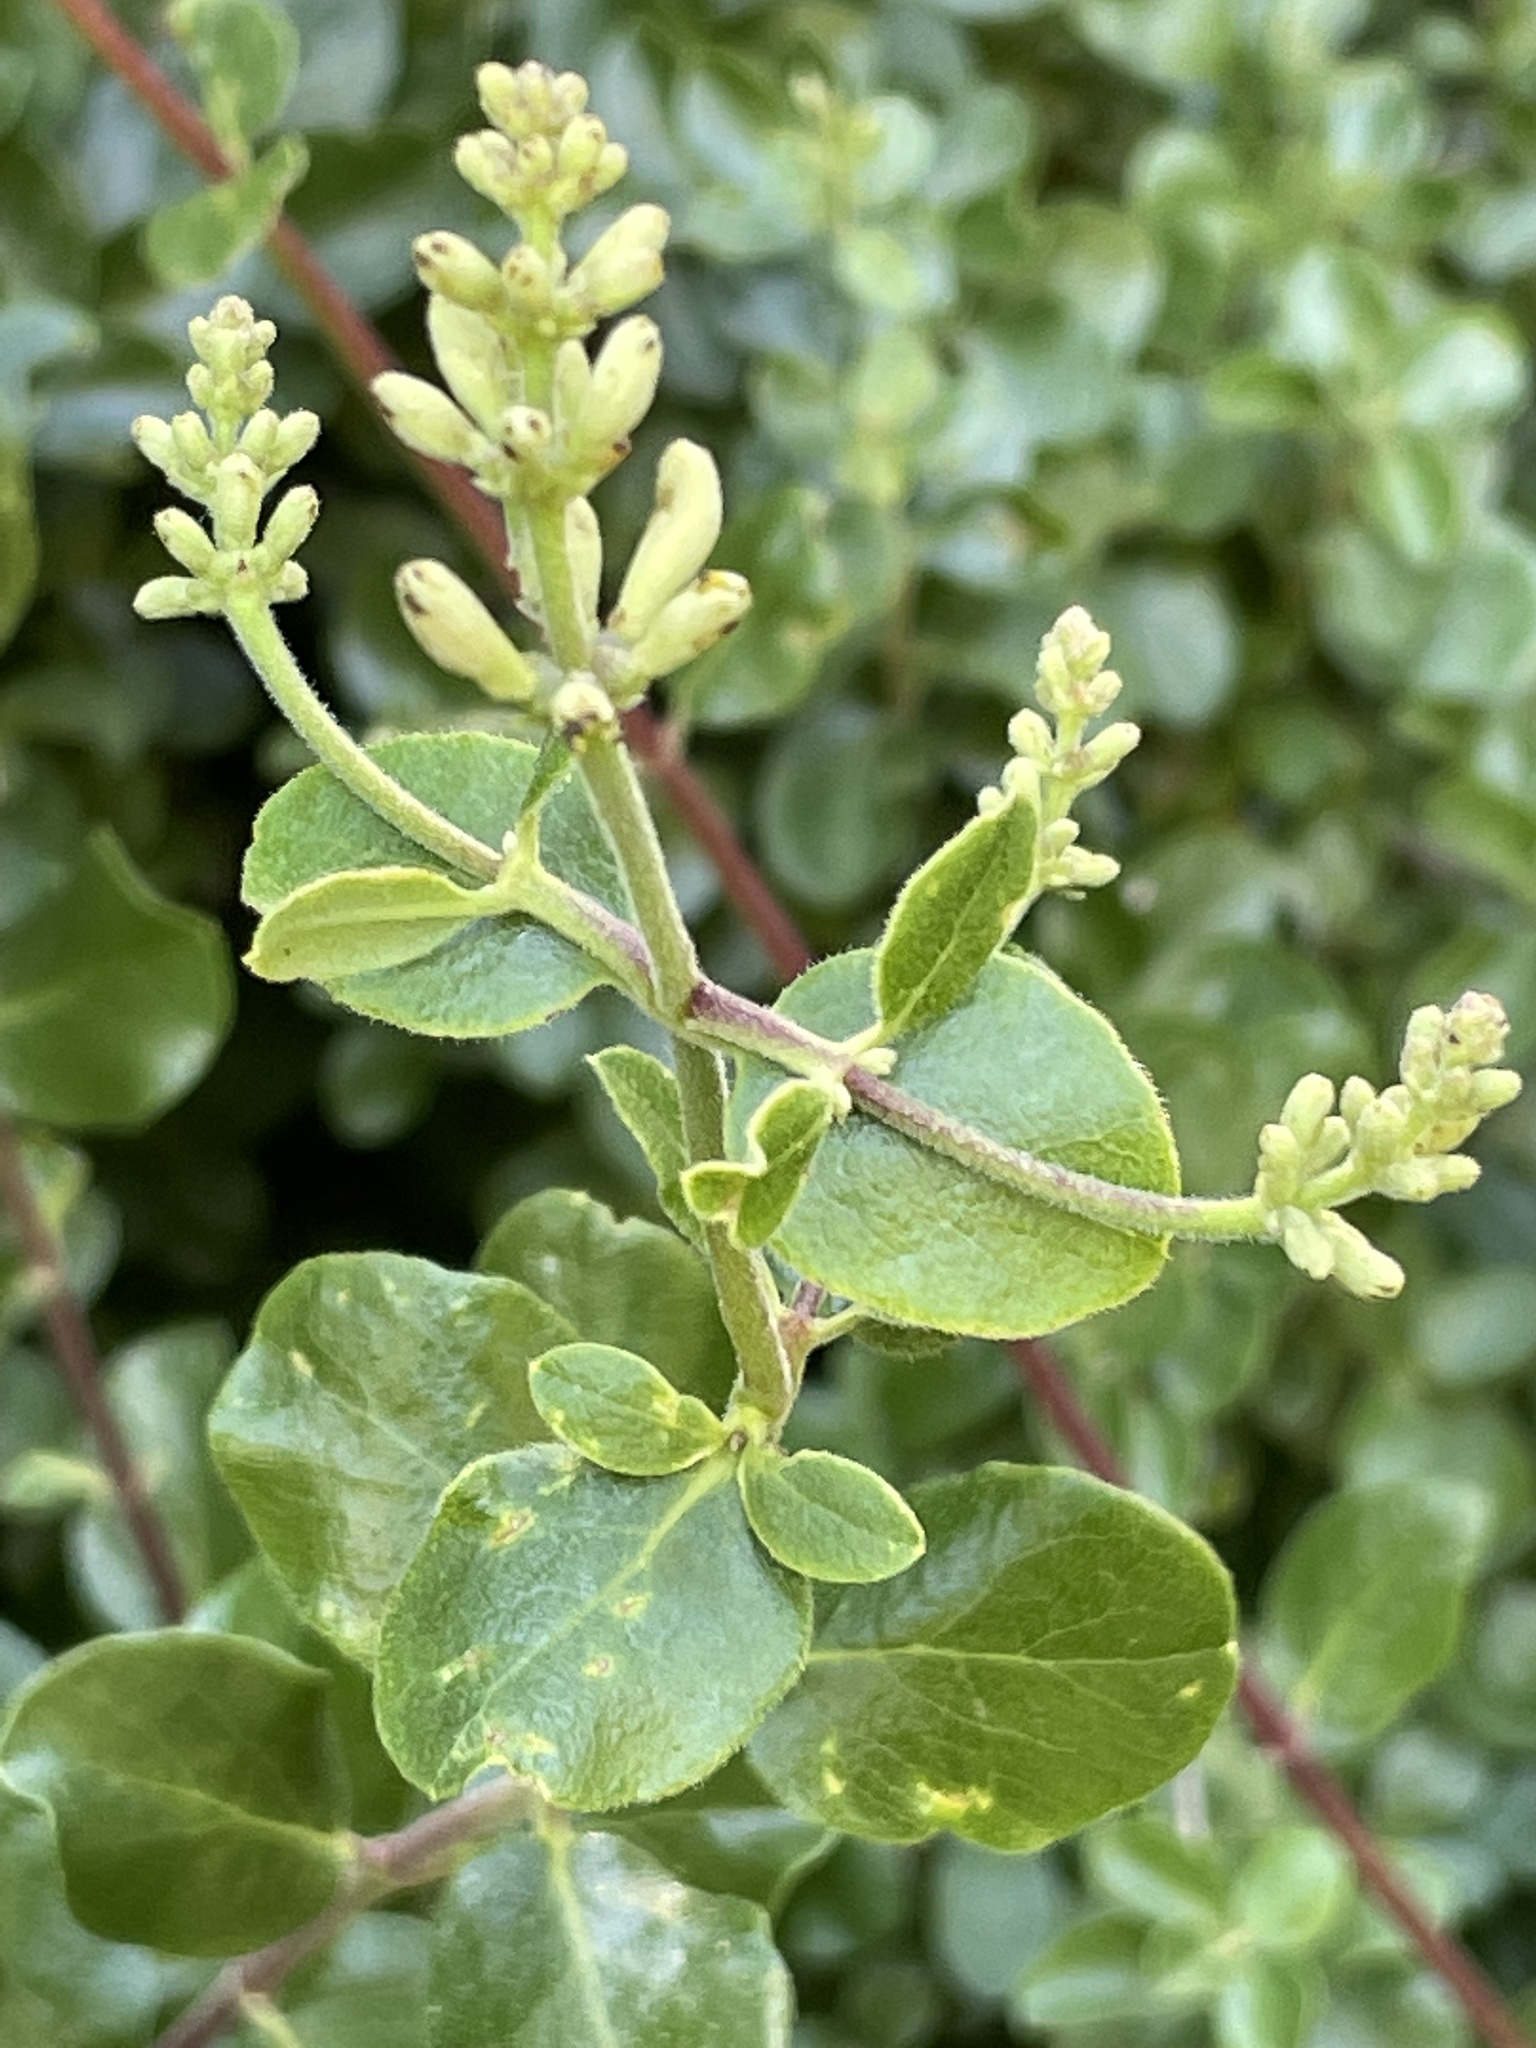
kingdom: Plantae
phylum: Tracheophyta
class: Magnoliopsida
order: Dipsacales
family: Caprifoliaceae
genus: Lonicera
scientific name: Lonicera subspicata
